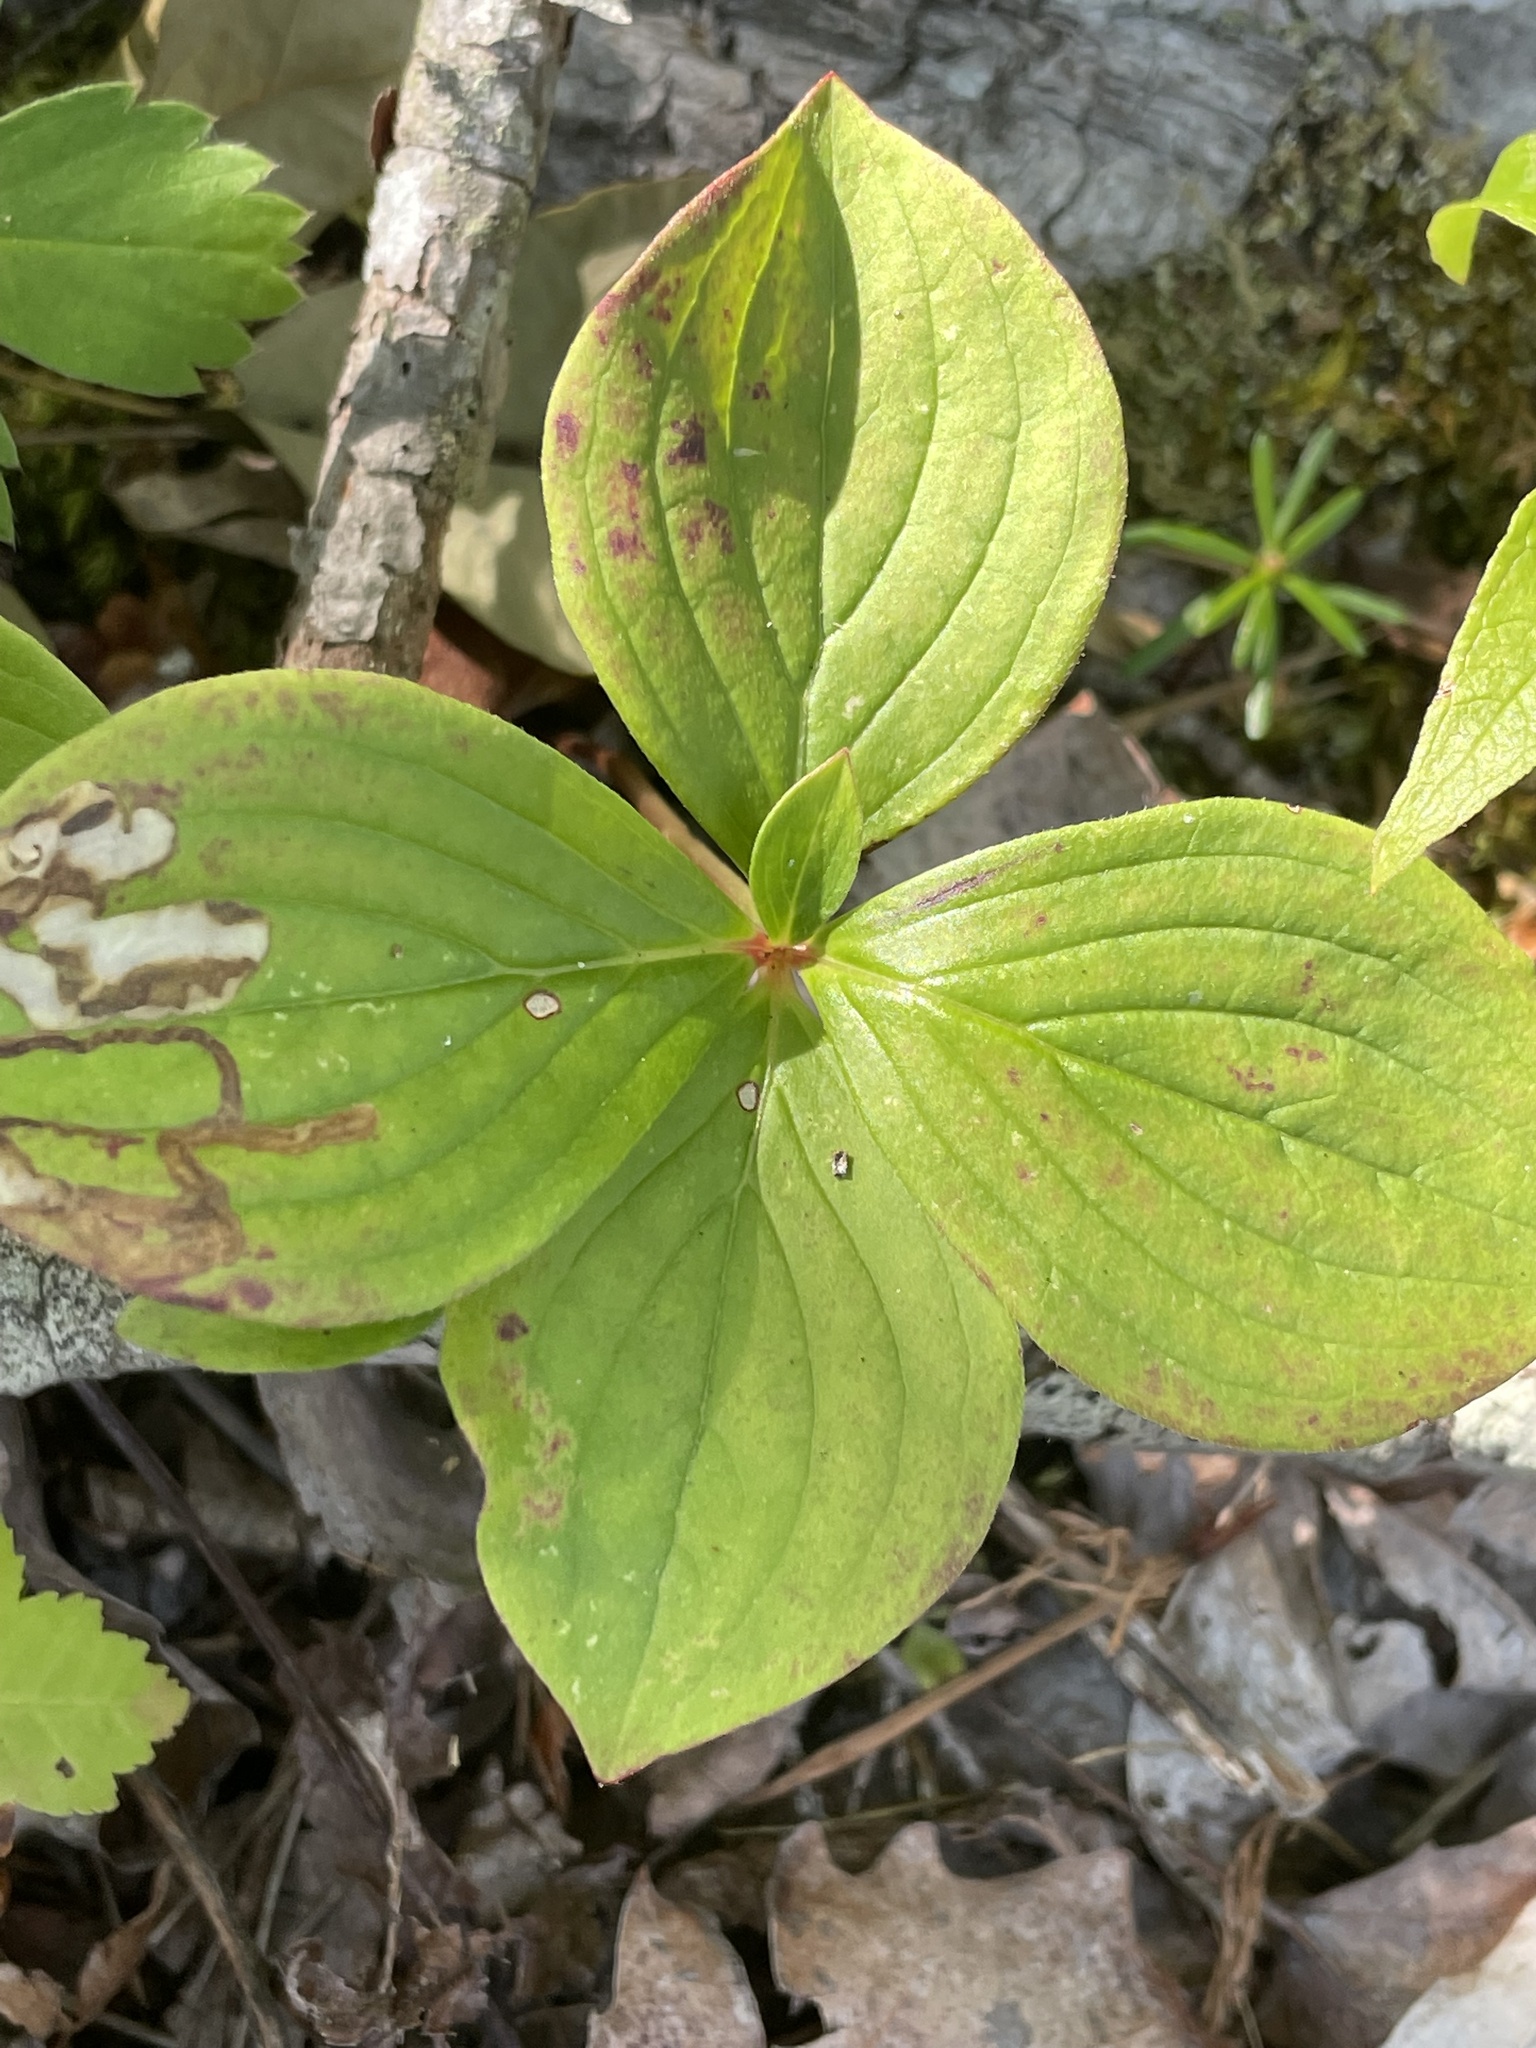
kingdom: Plantae
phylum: Tracheophyta
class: Magnoliopsida
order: Cornales
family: Cornaceae
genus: Cornus
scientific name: Cornus canadensis
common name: Creeping dogwood
